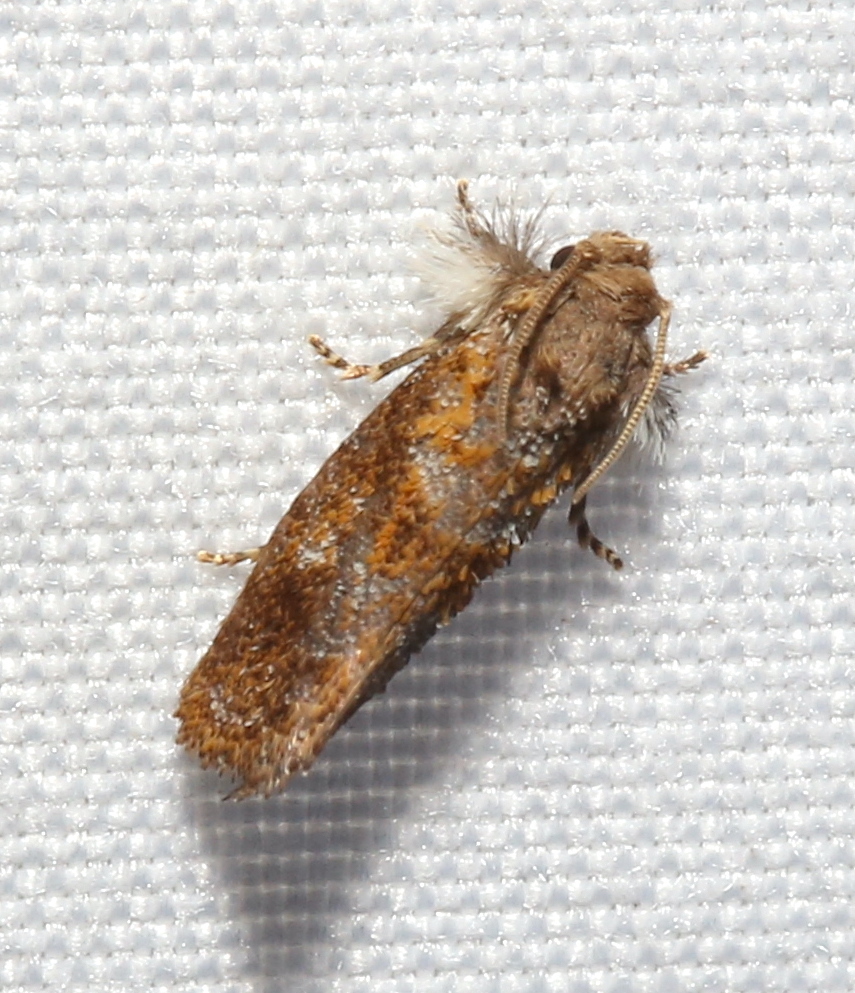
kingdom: Animalia
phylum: Arthropoda
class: Insecta
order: Lepidoptera
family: Tineidae
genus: Acrolophus
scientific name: Acrolophus panamae
